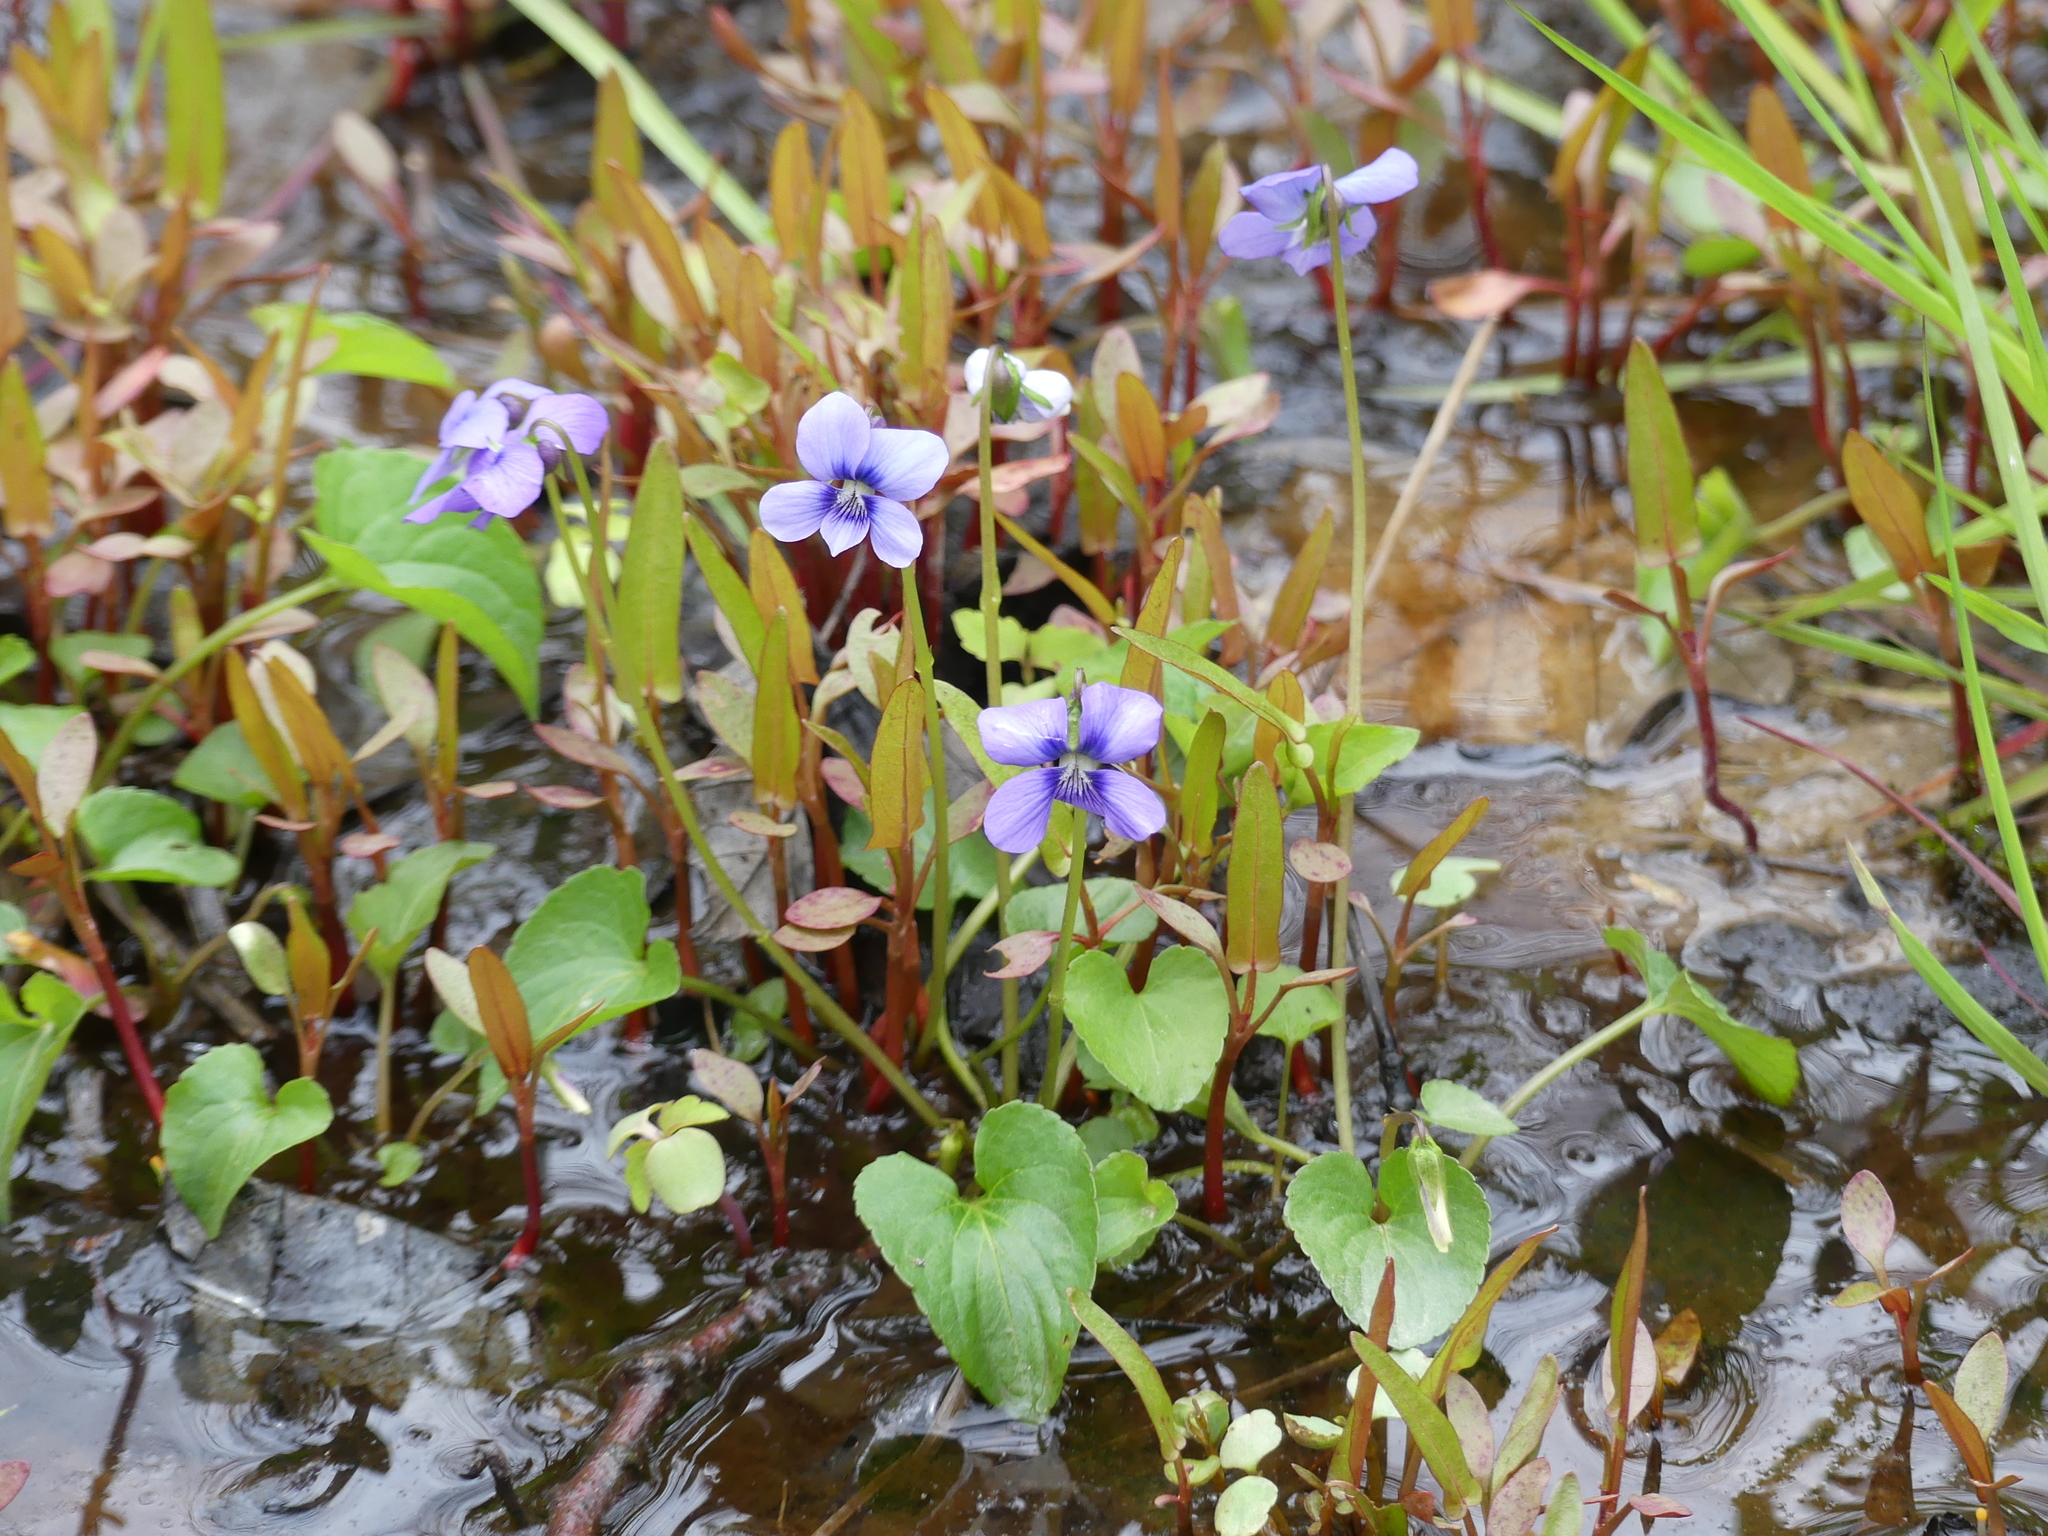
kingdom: Plantae
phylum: Tracheophyta
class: Magnoliopsida
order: Malpighiales
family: Violaceae
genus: Viola
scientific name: Viola cucullata
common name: Marsh blue violet
